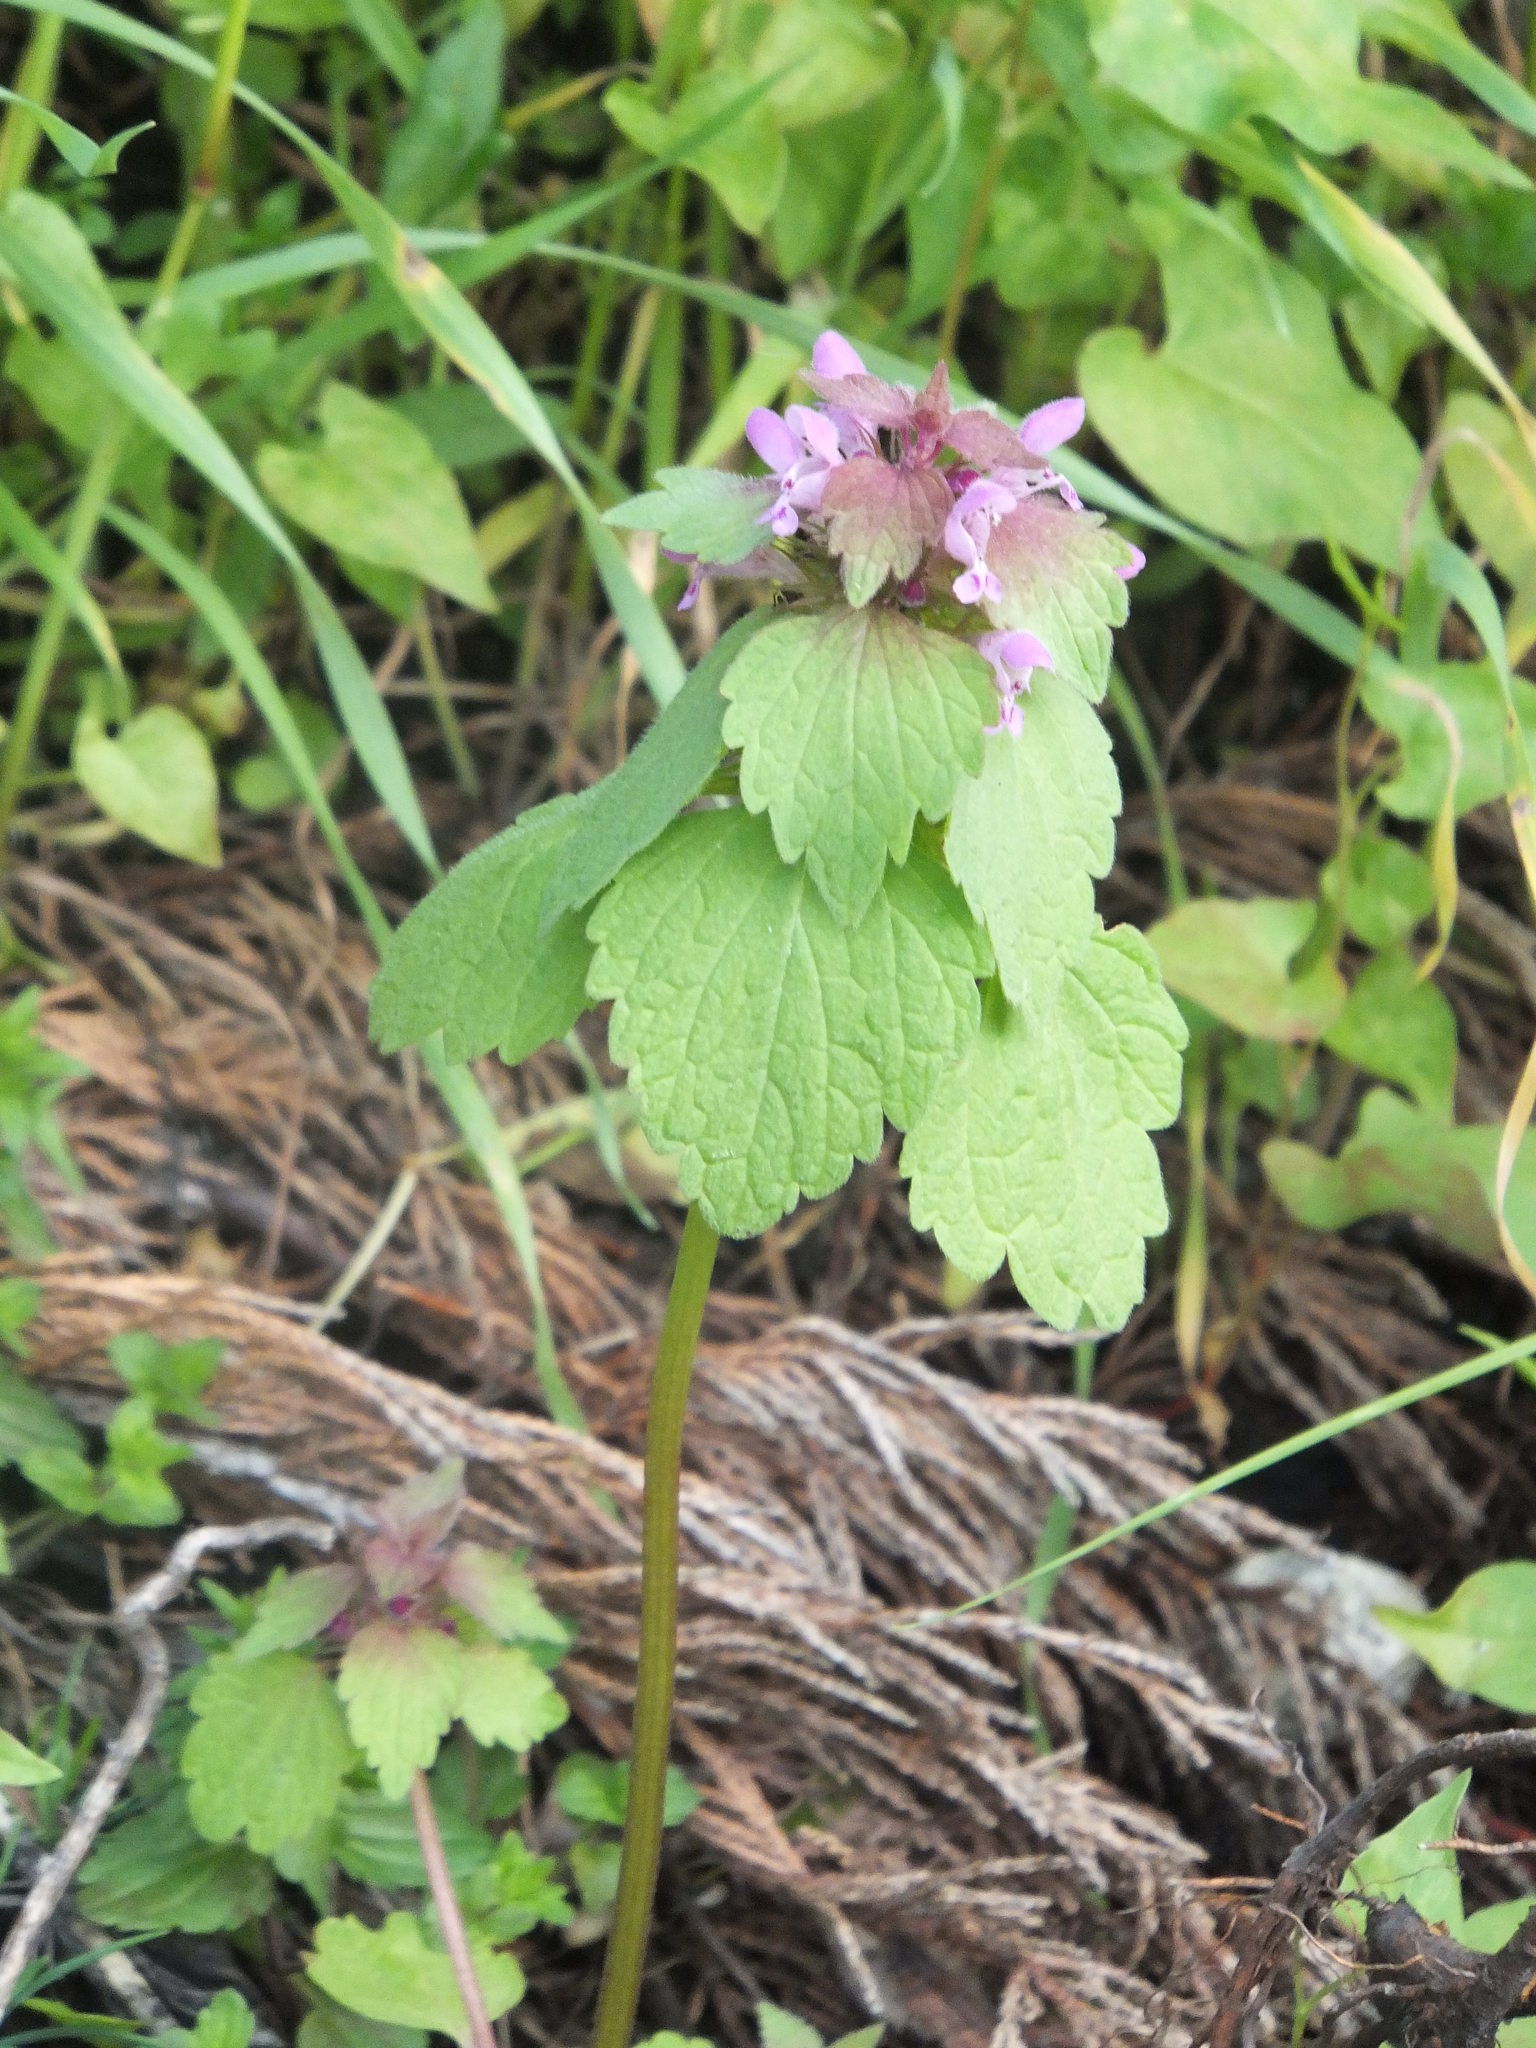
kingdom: Plantae
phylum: Tracheophyta
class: Magnoliopsida
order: Lamiales
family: Lamiaceae
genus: Lamium
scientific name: Lamium purpureum
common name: Red dead-nettle
